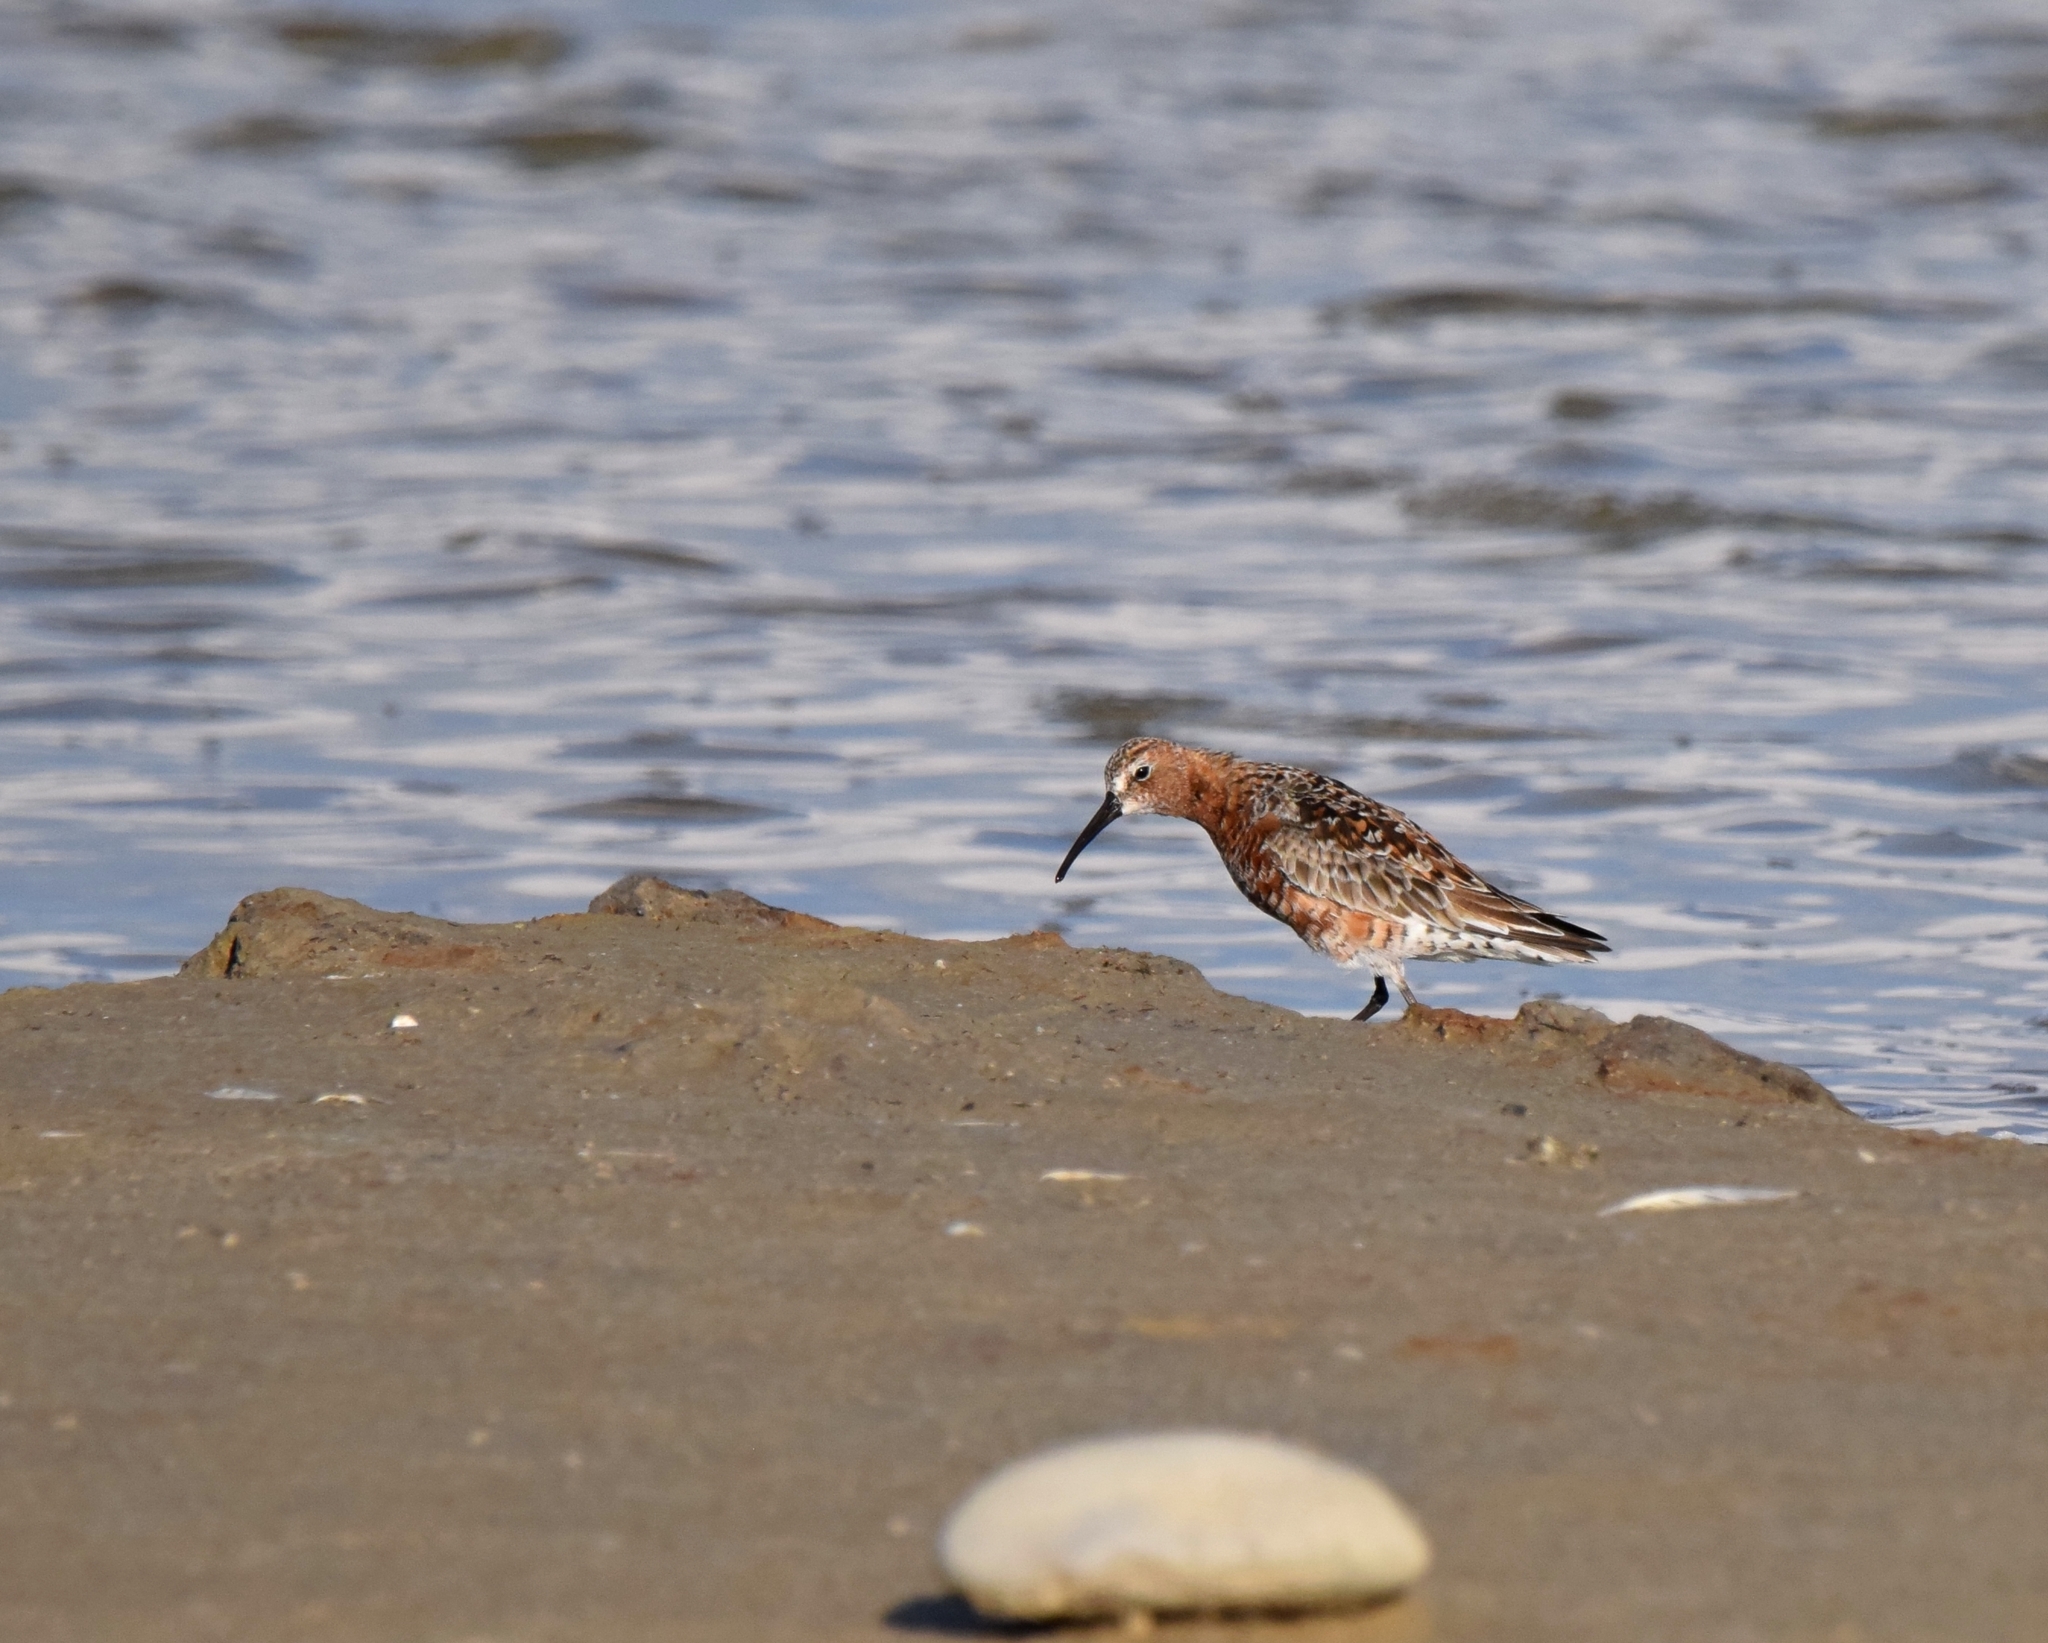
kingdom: Animalia
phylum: Chordata
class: Aves
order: Charadriiformes
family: Scolopacidae
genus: Calidris
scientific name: Calidris ferruginea
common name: Curlew sandpiper
